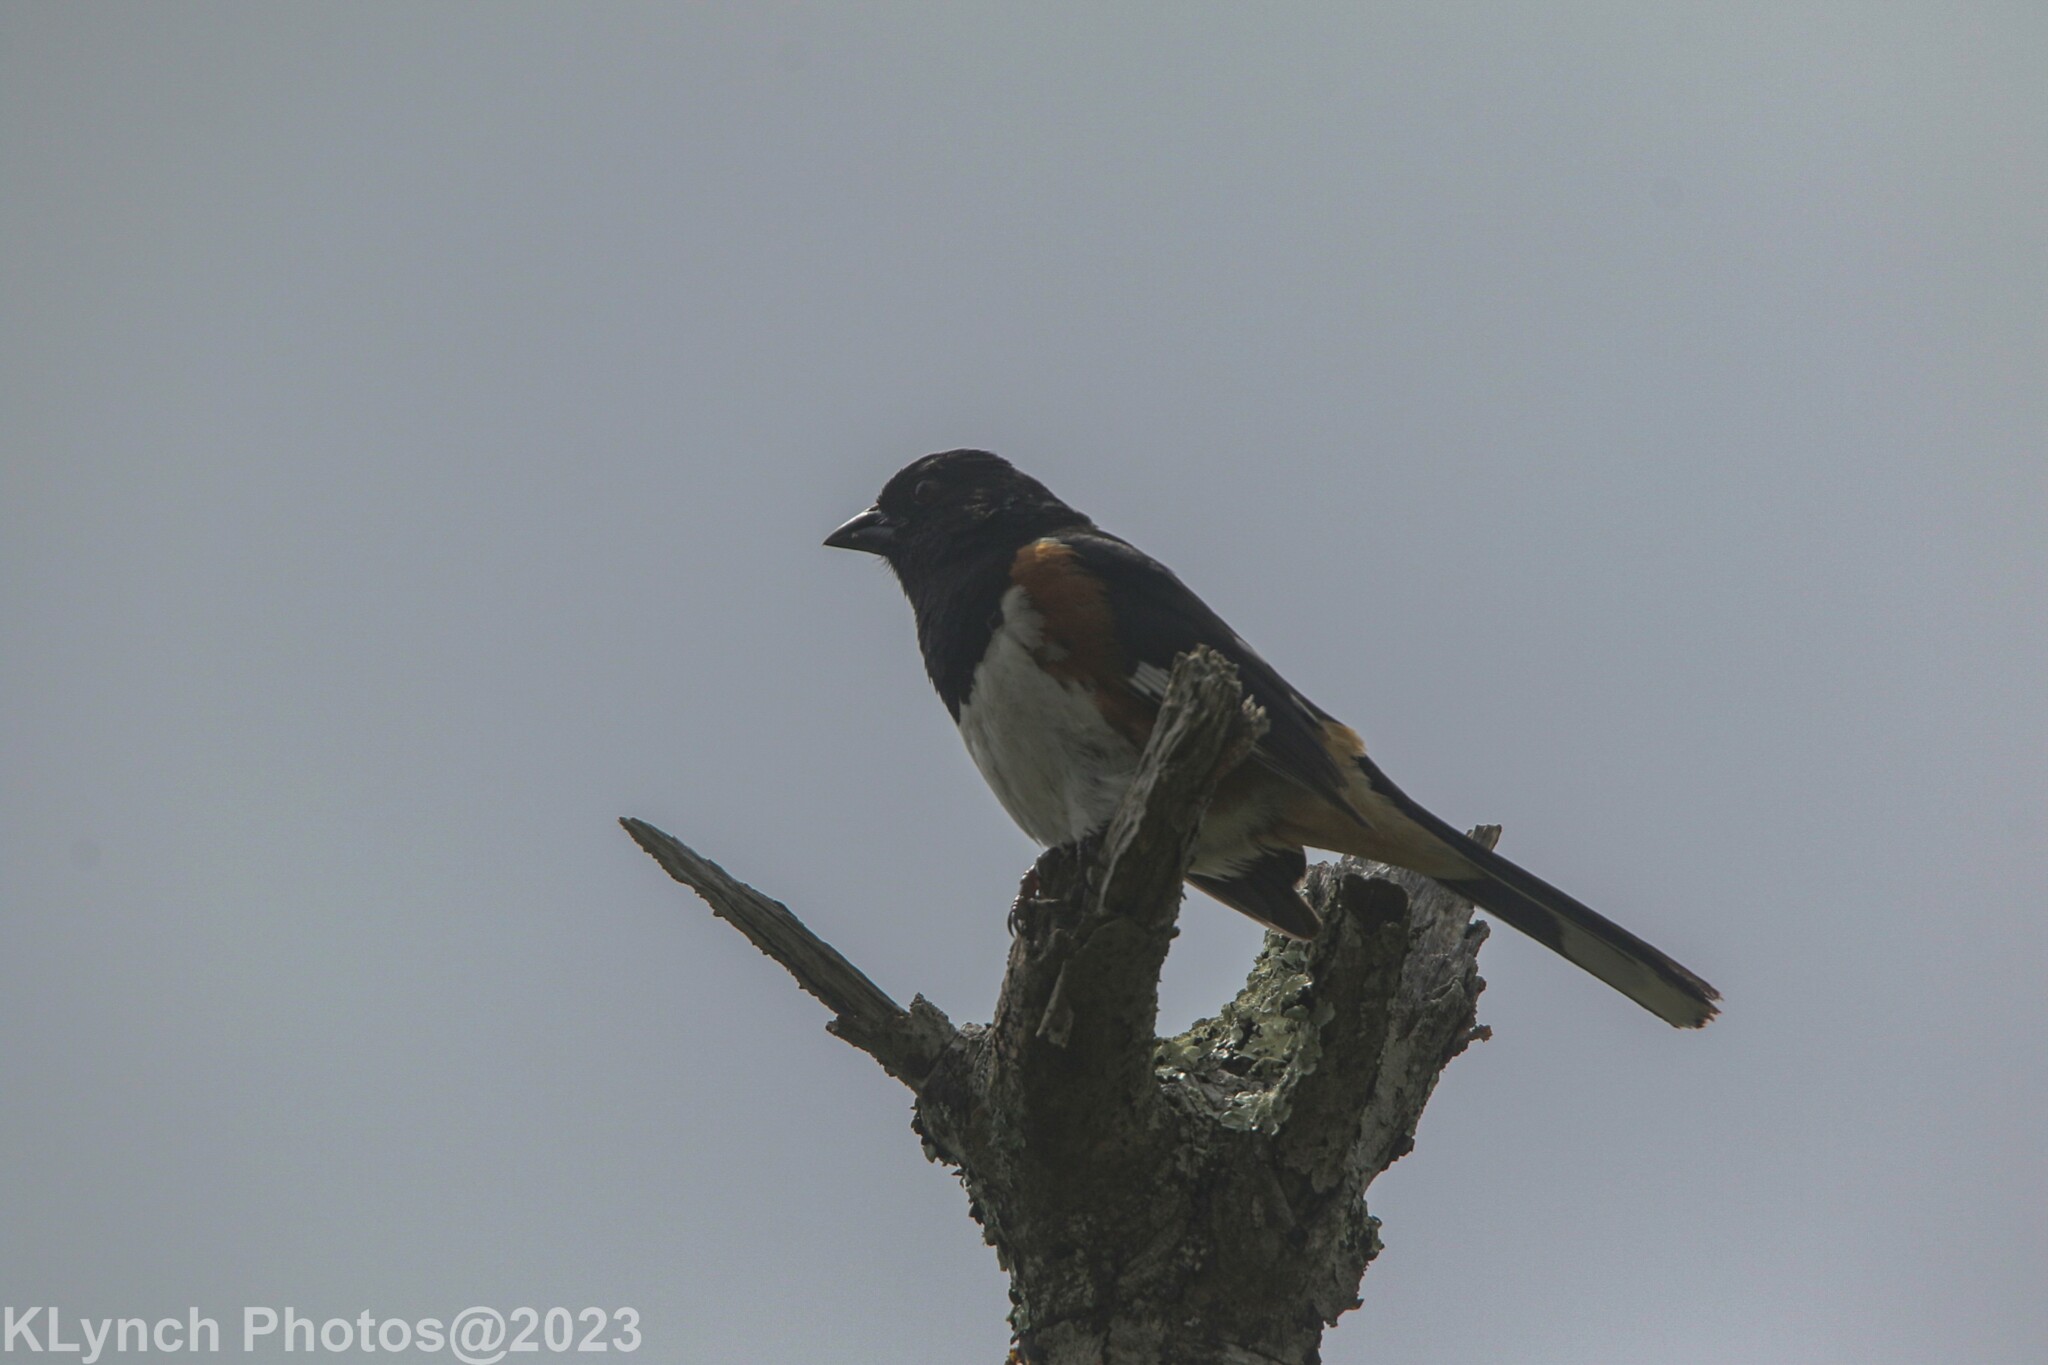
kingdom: Animalia
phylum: Chordata
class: Aves
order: Passeriformes
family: Passerellidae
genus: Pipilo
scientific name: Pipilo erythrophthalmus
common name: Eastern towhee
